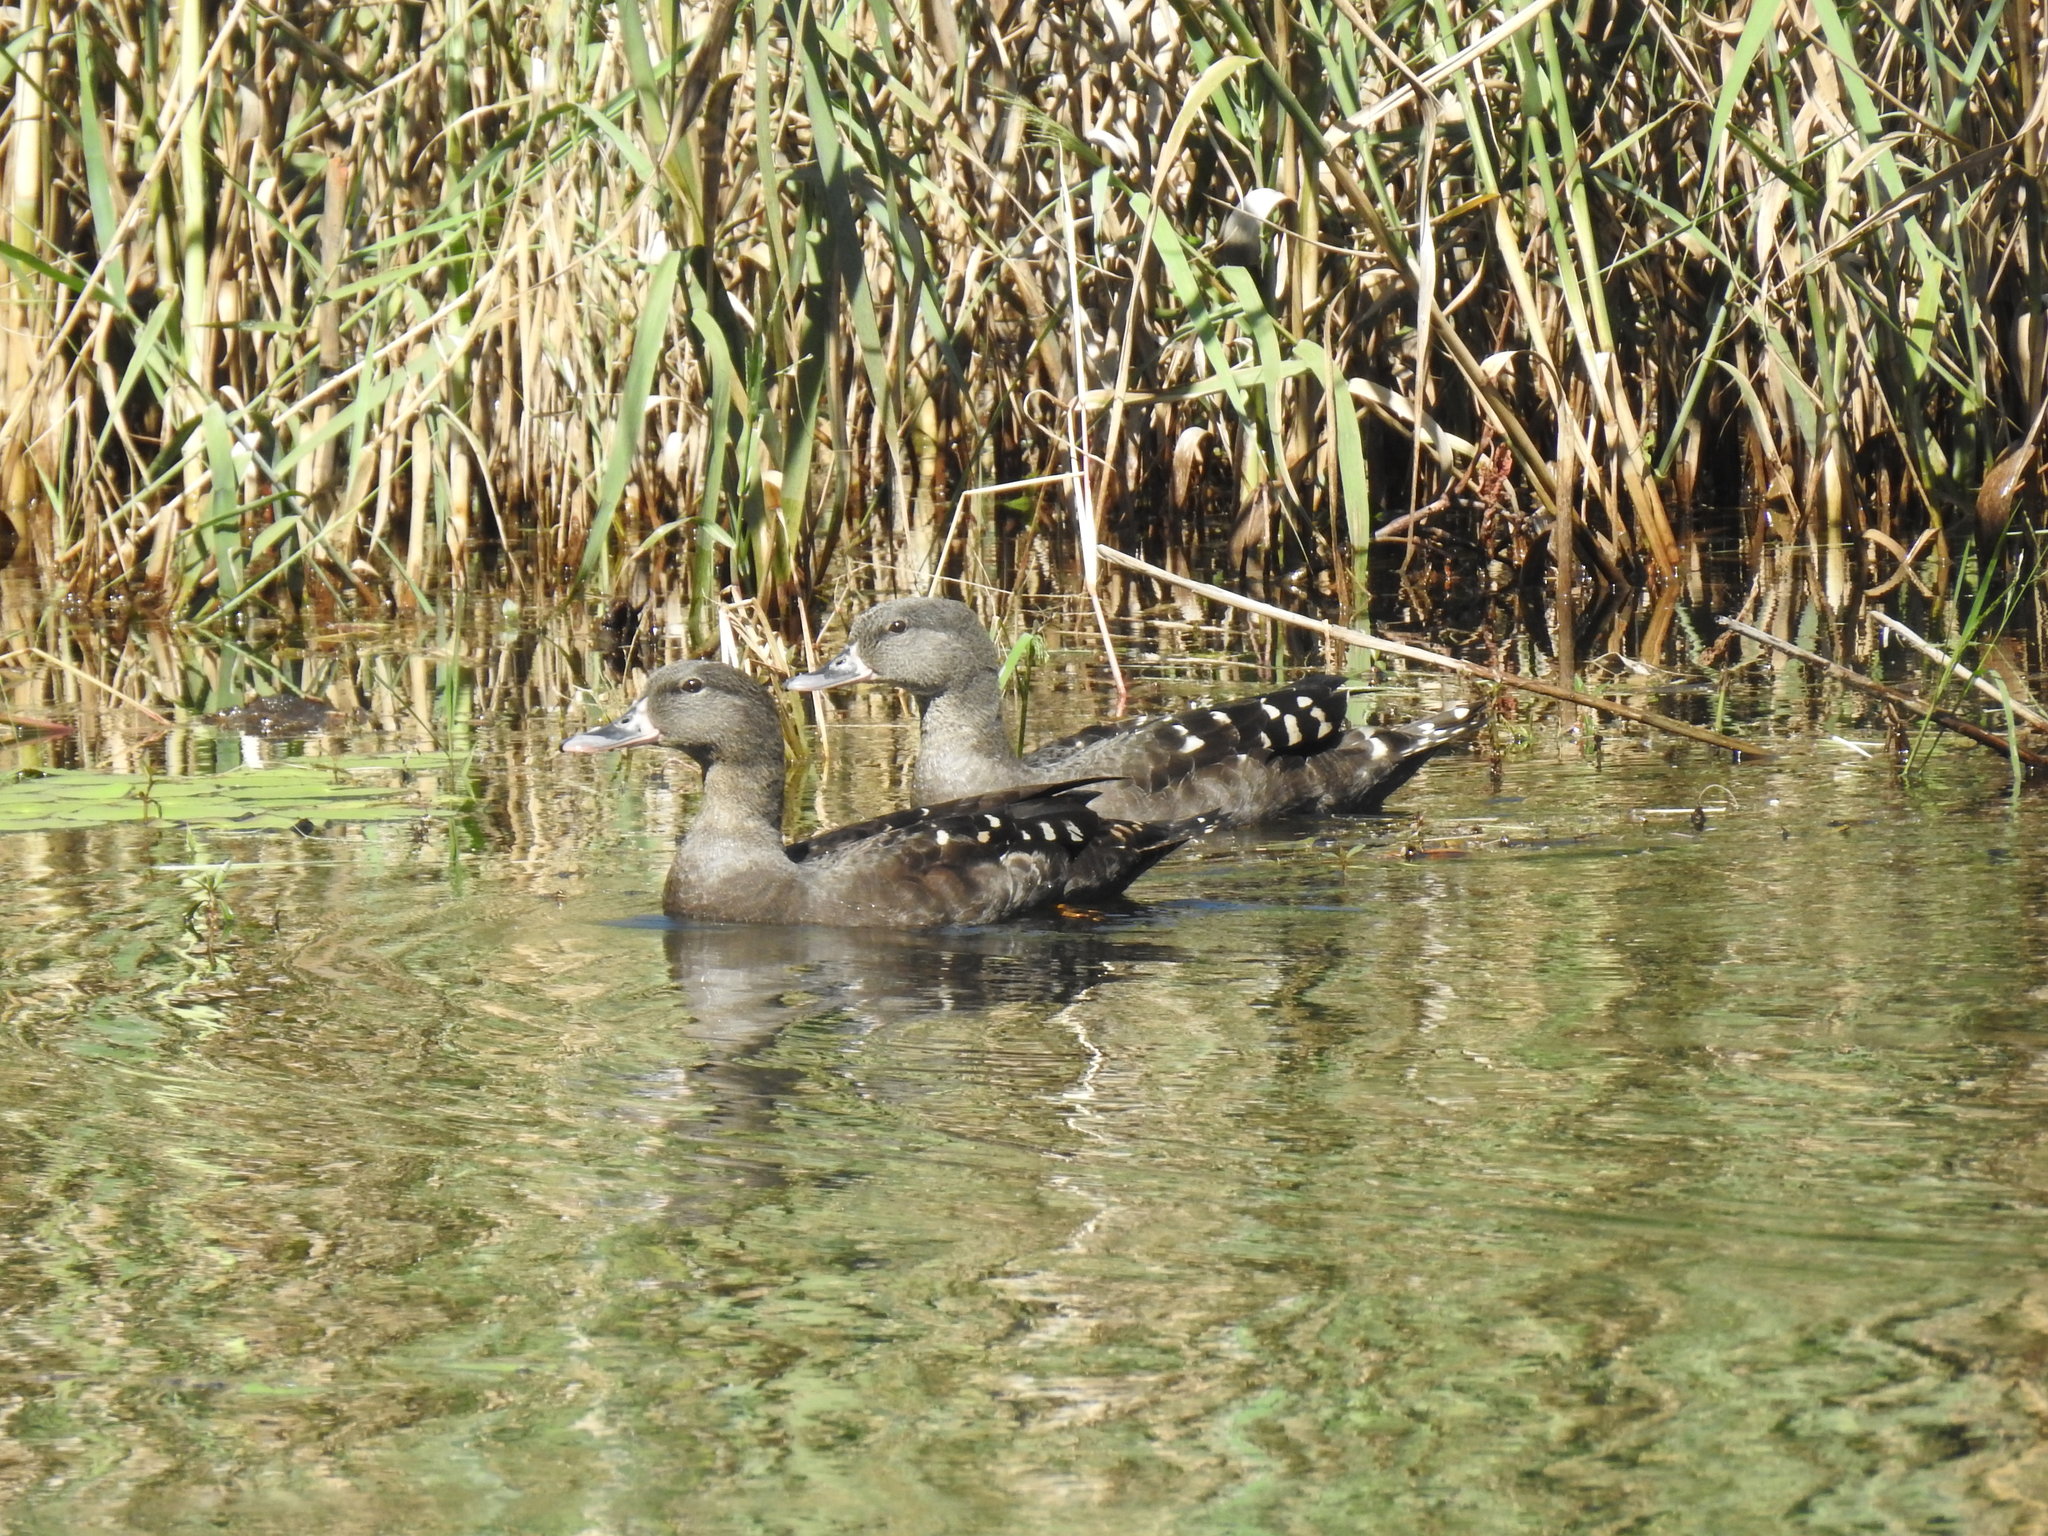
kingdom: Animalia
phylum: Chordata
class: Aves
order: Anseriformes
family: Anatidae
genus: Anas
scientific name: Anas sparsa
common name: African black duck
